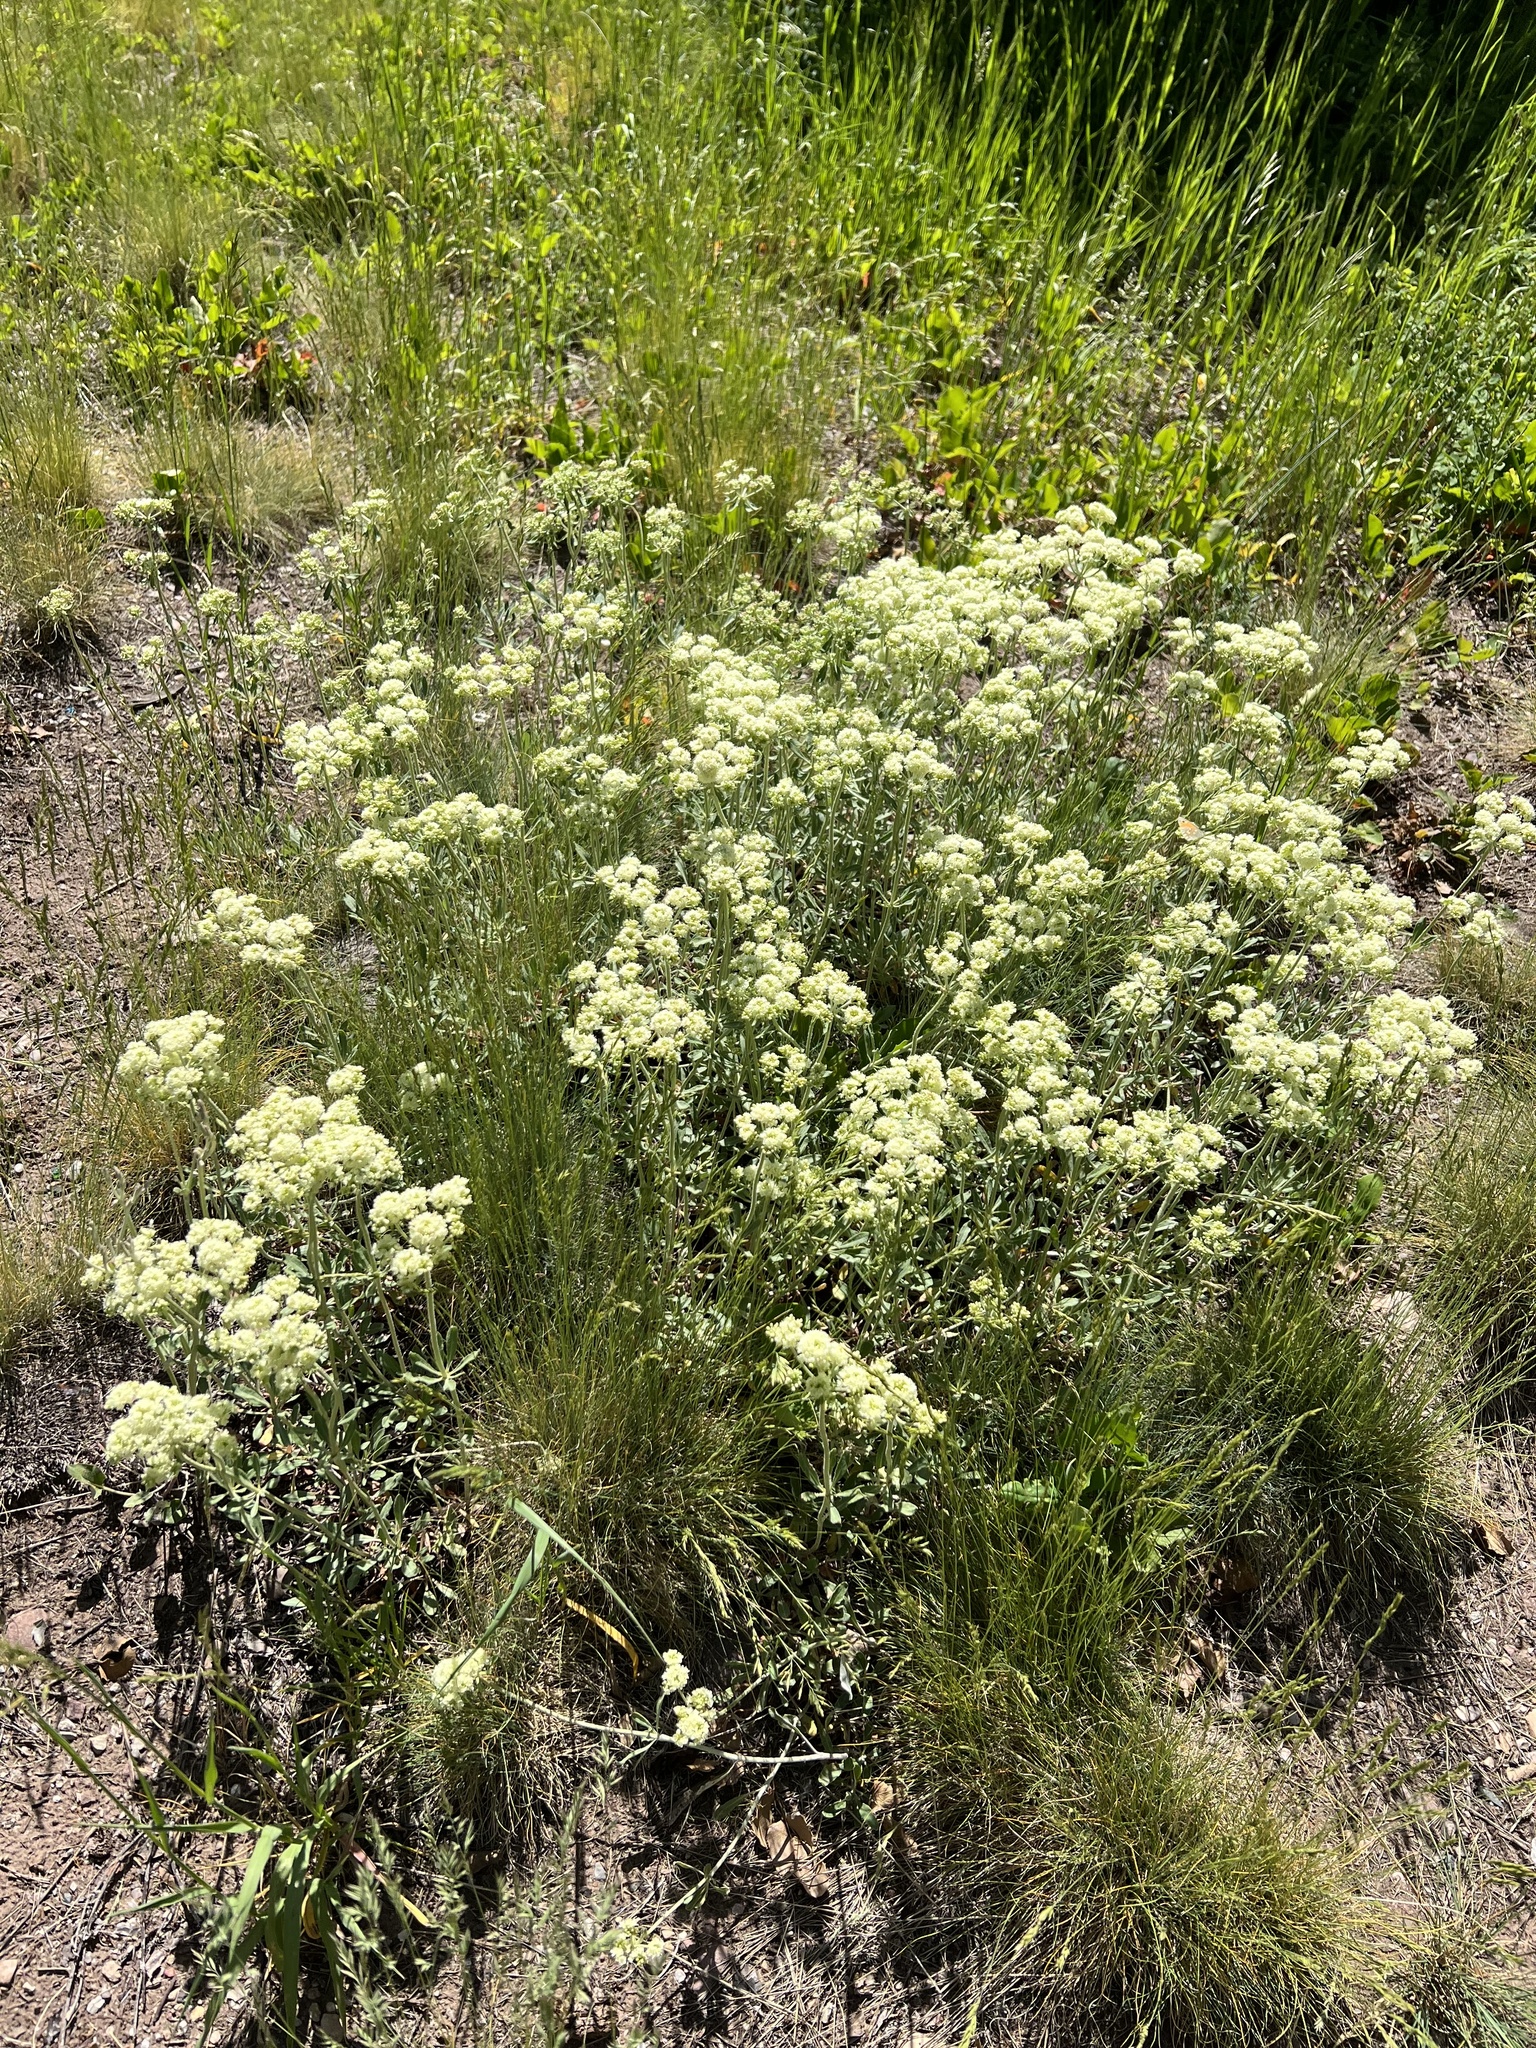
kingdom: Plantae
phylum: Tracheophyta
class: Magnoliopsida
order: Caryophyllales
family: Polygonaceae
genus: Eriogonum
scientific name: Eriogonum heracleoides
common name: Wyeth's buckwheat
